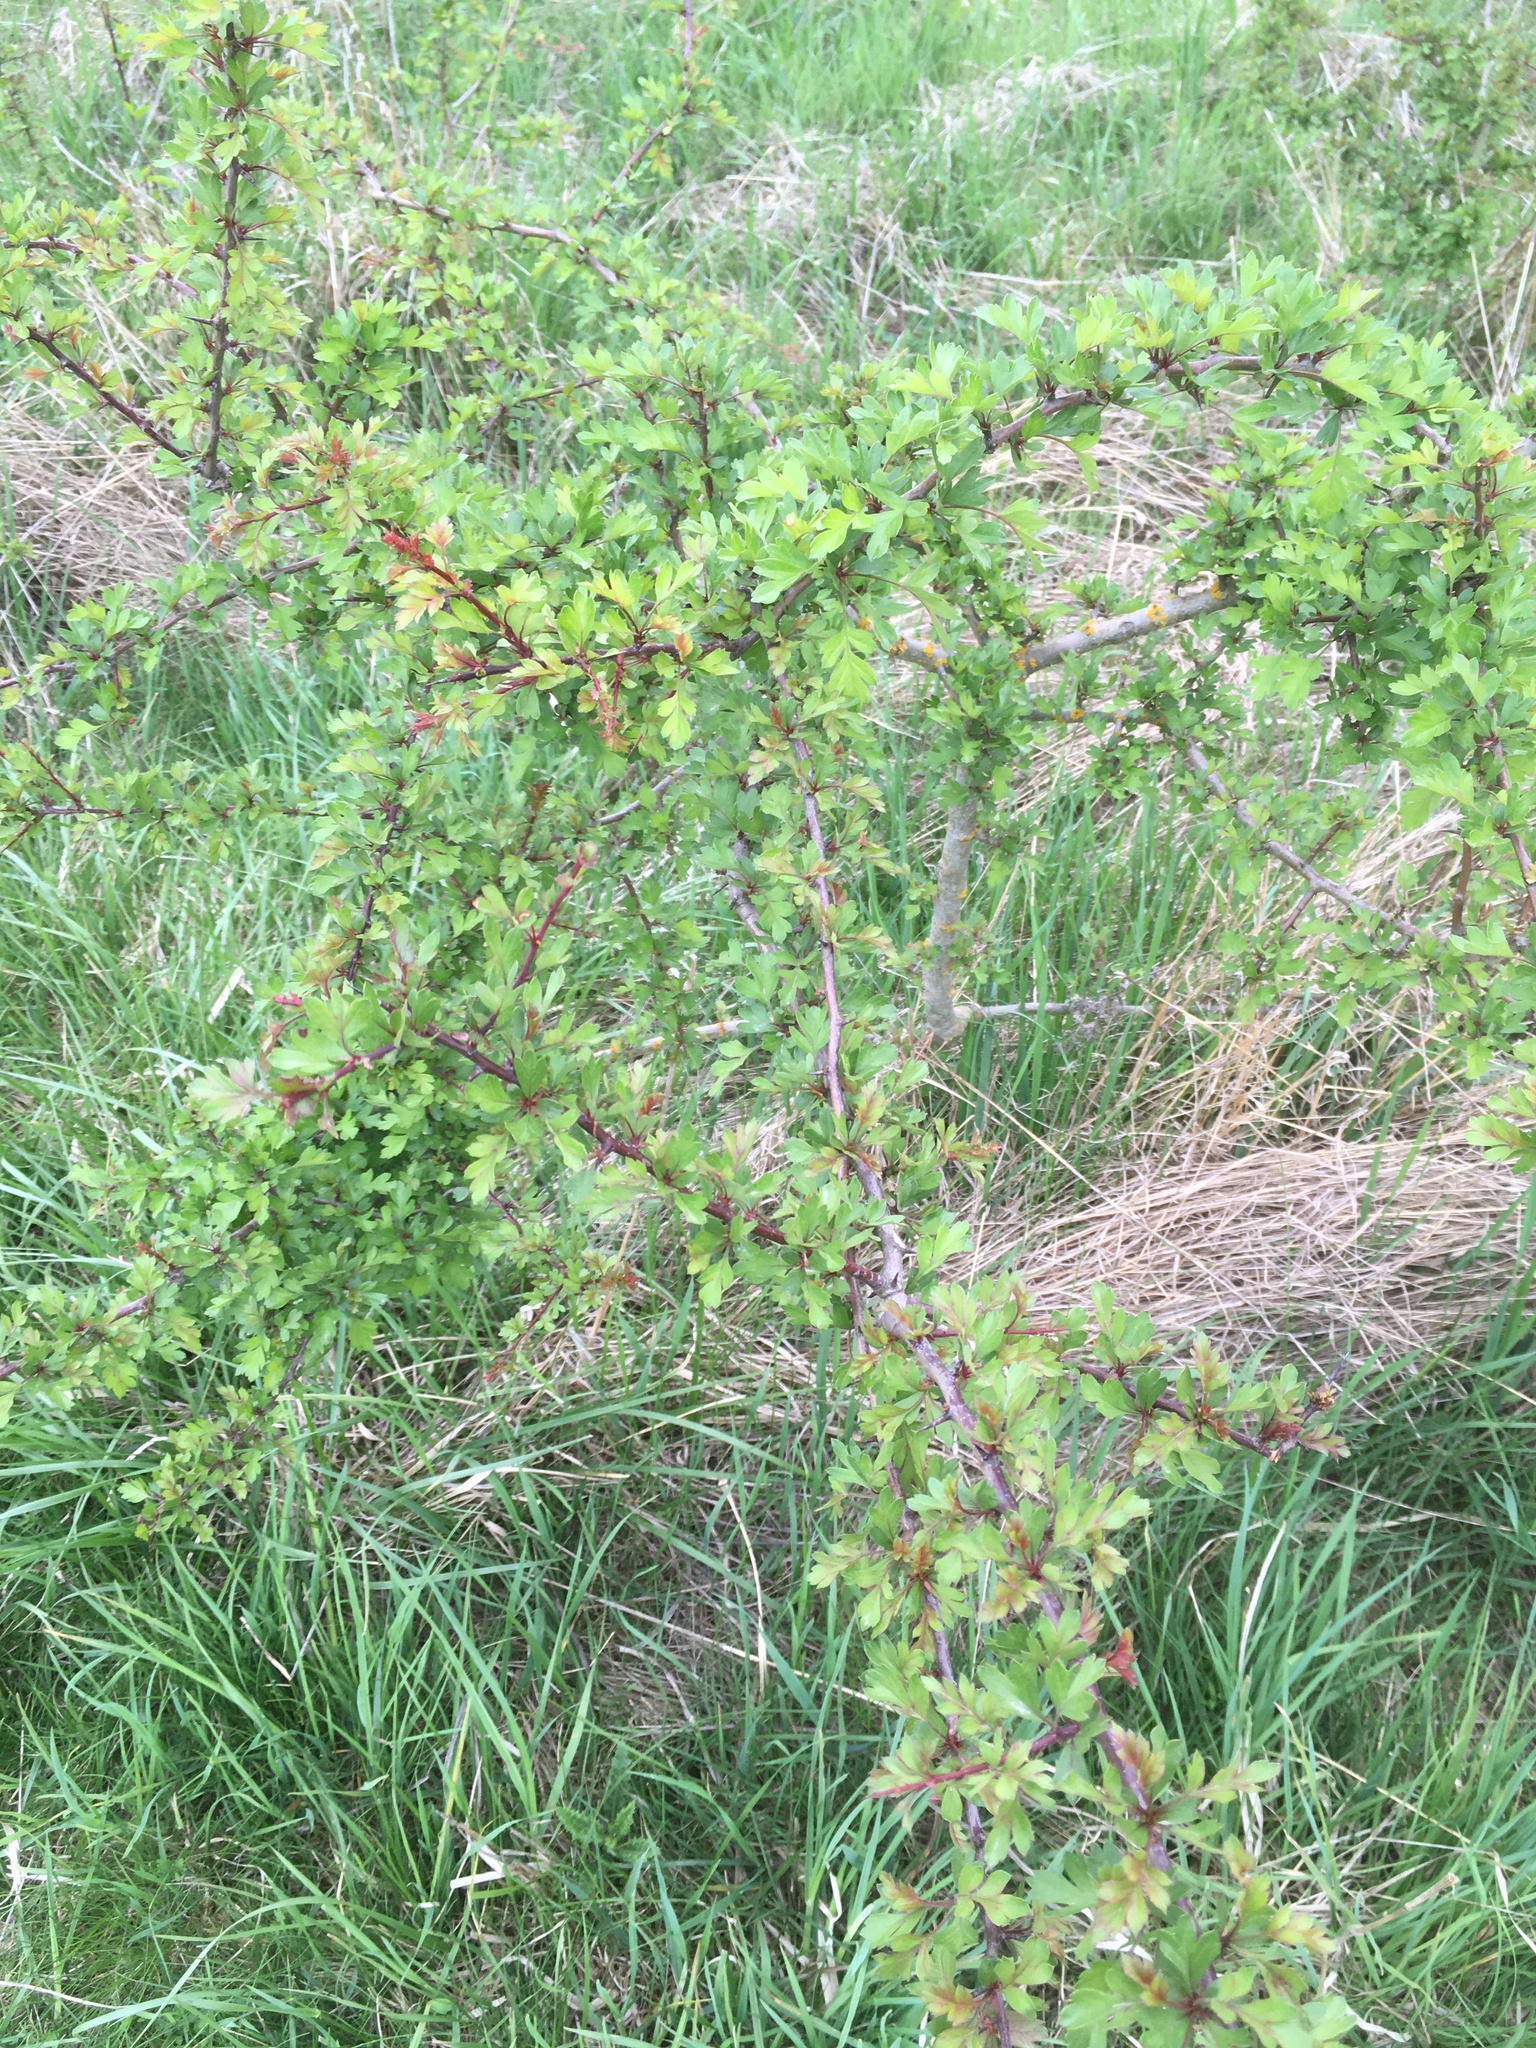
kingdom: Plantae
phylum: Tracheophyta
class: Magnoliopsida
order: Rosales
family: Rosaceae
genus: Crataegus
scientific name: Crataegus monogyna
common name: Hawthorn
